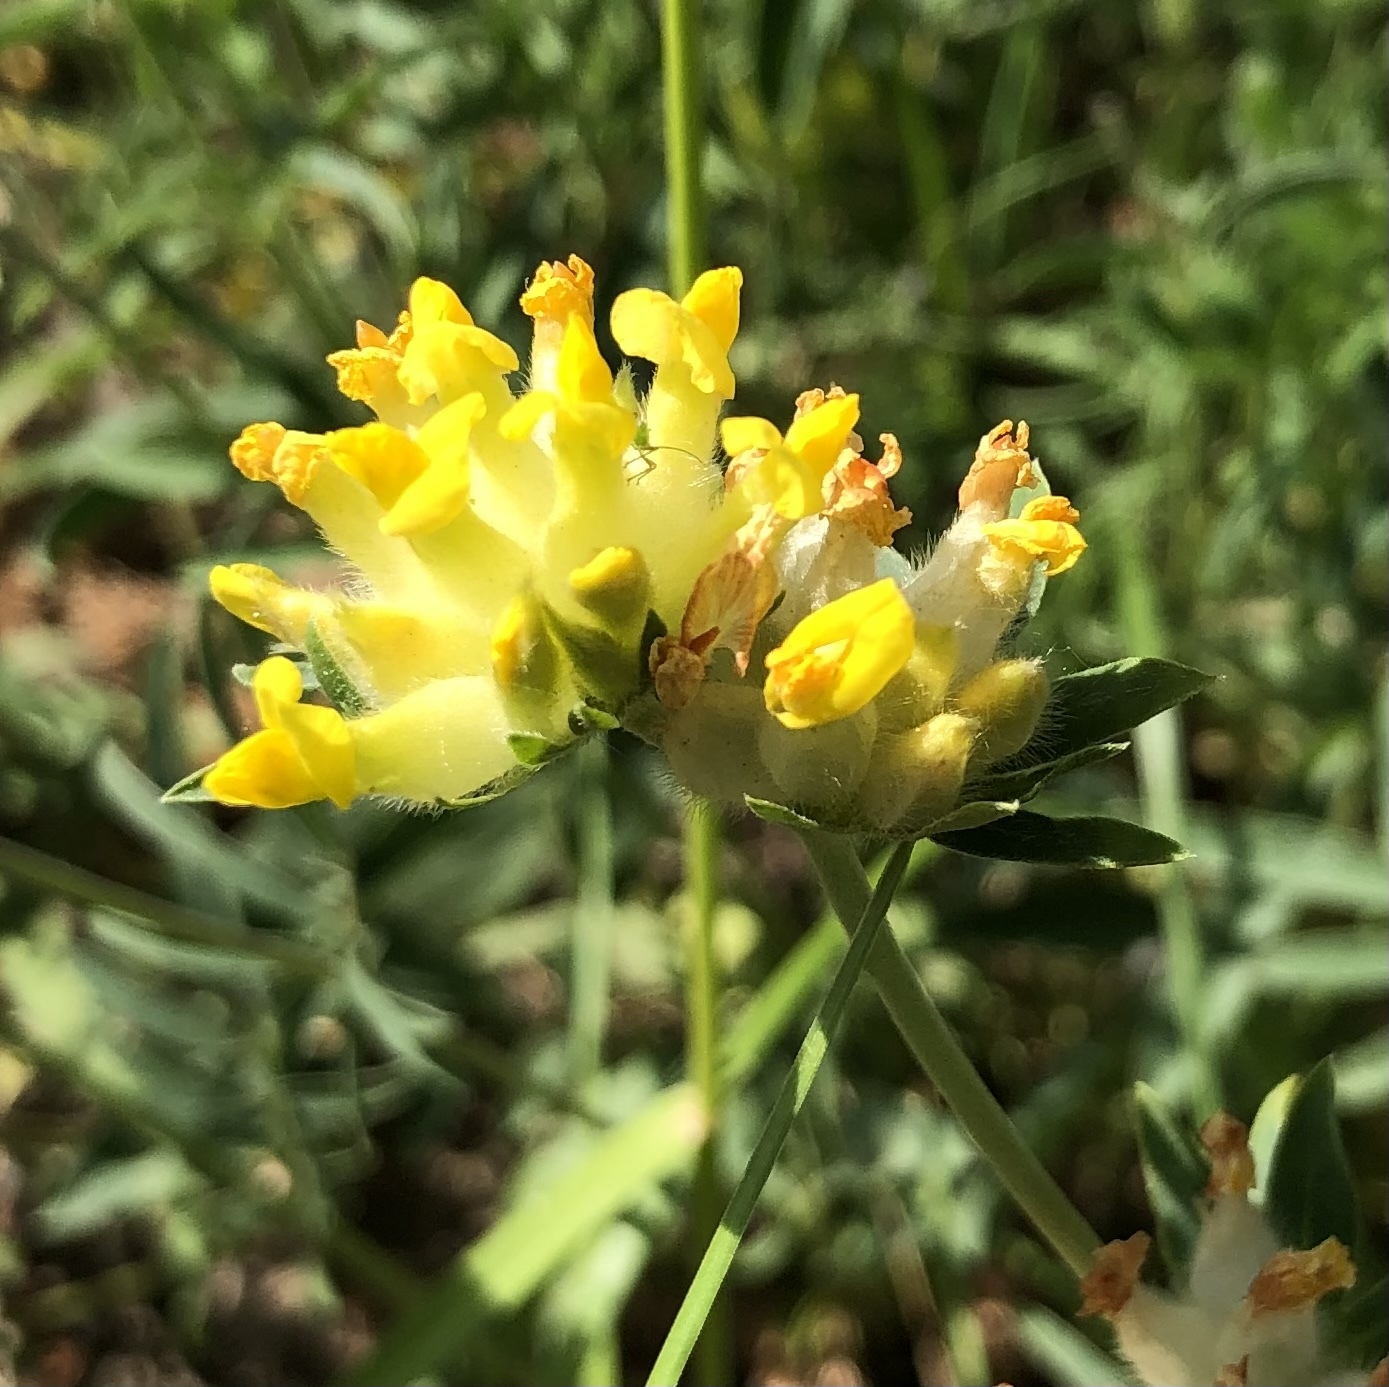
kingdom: Plantae
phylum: Tracheophyta
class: Magnoliopsida
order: Fabales
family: Fabaceae
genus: Anthyllis
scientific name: Anthyllis vulneraria
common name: Kidney vetch
